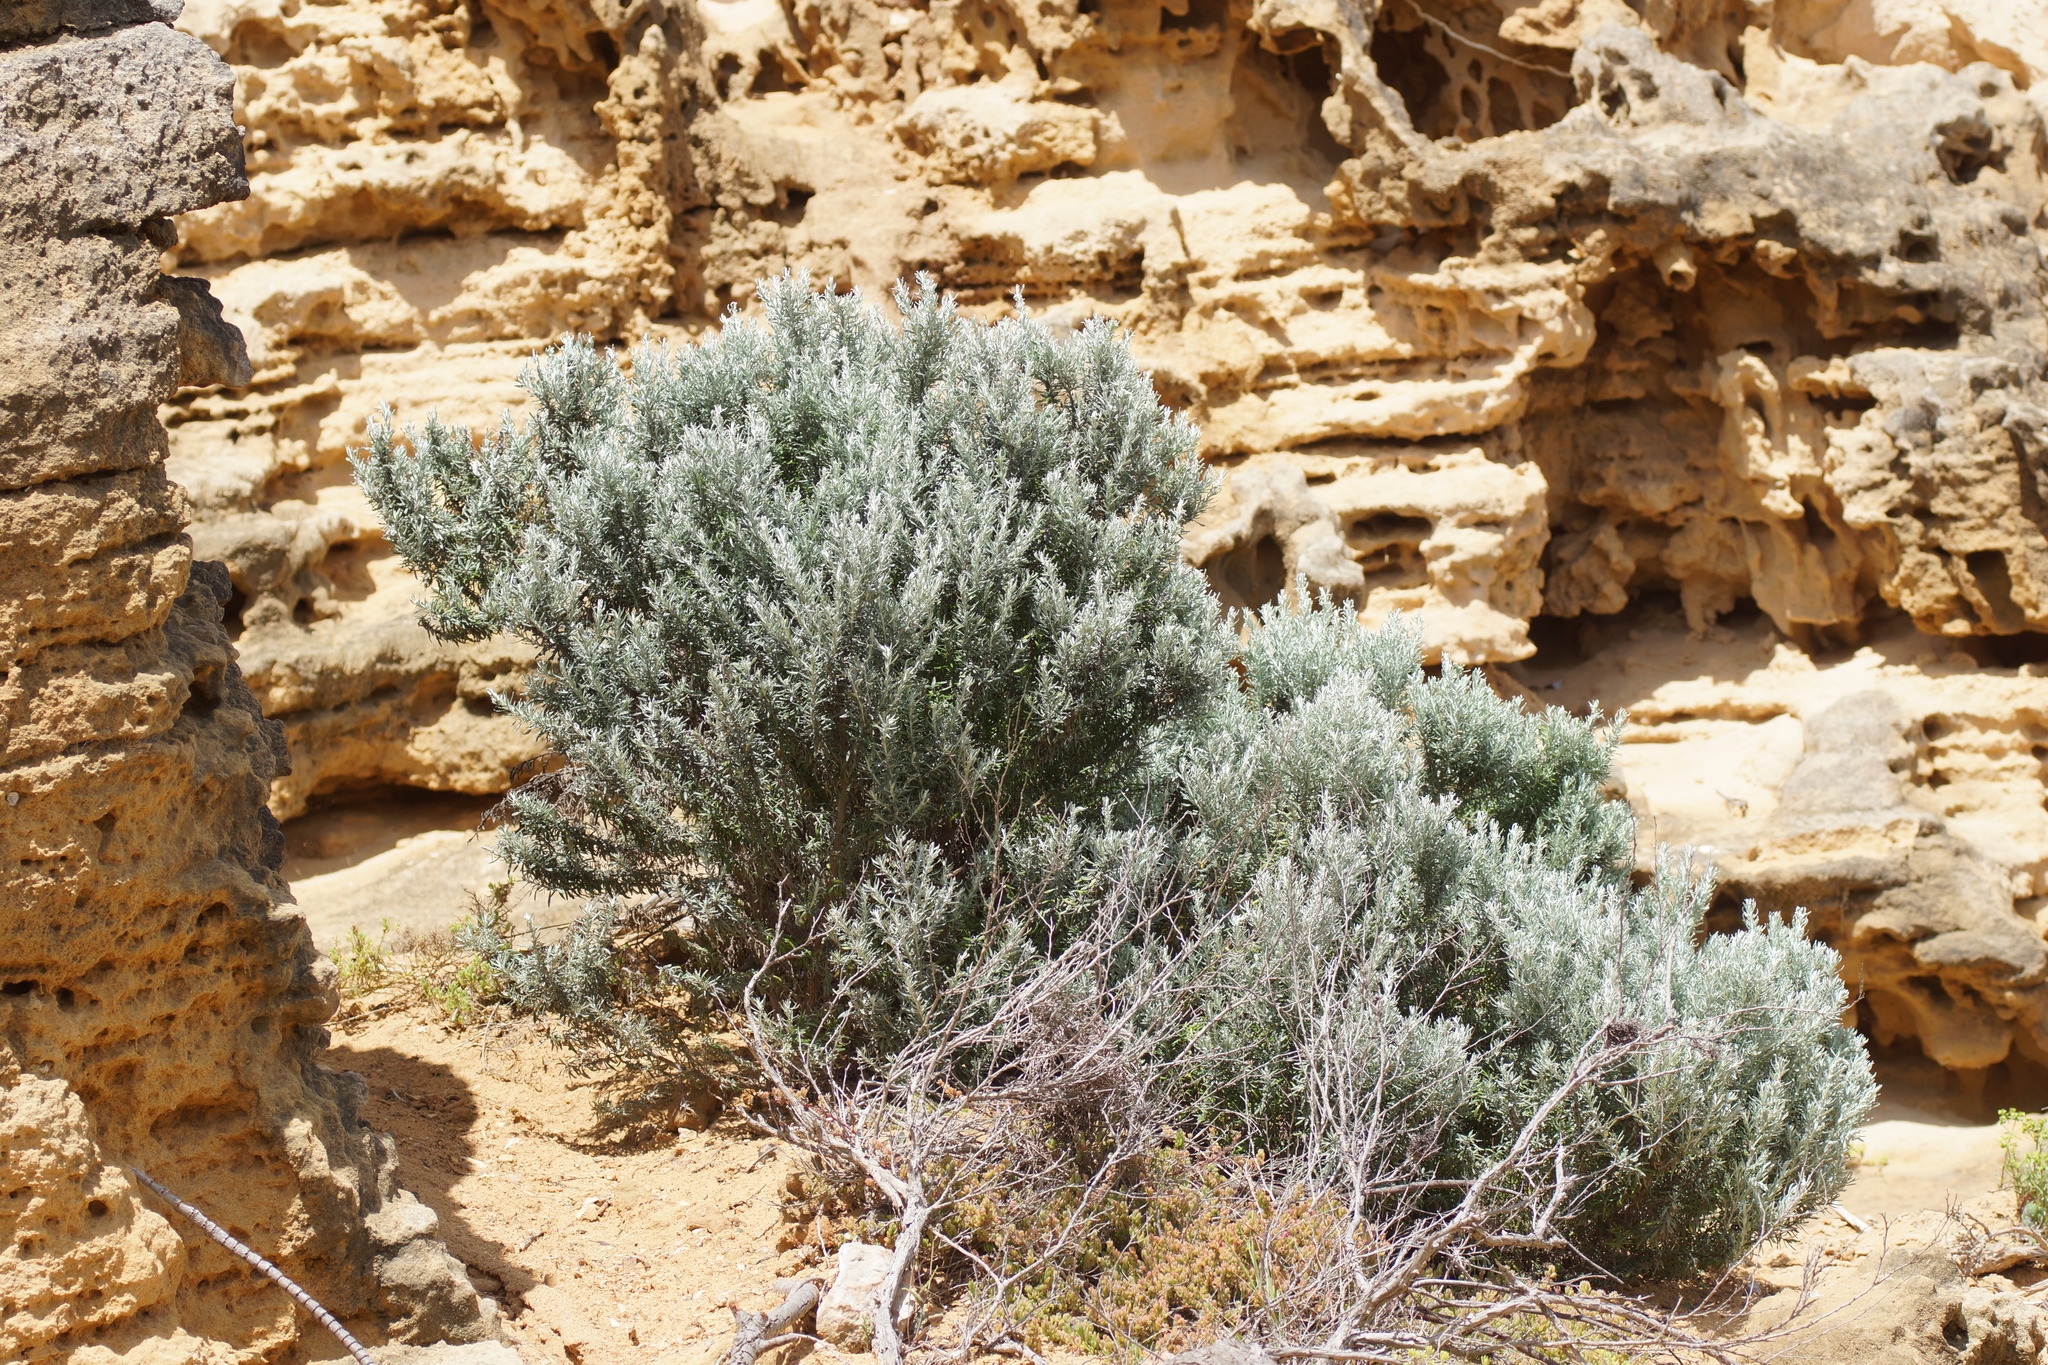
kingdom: Plantae
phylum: Tracheophyta
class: Magnoliopsida
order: Asterales
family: Asteraceae
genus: Olearia
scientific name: Olearia axillaris
